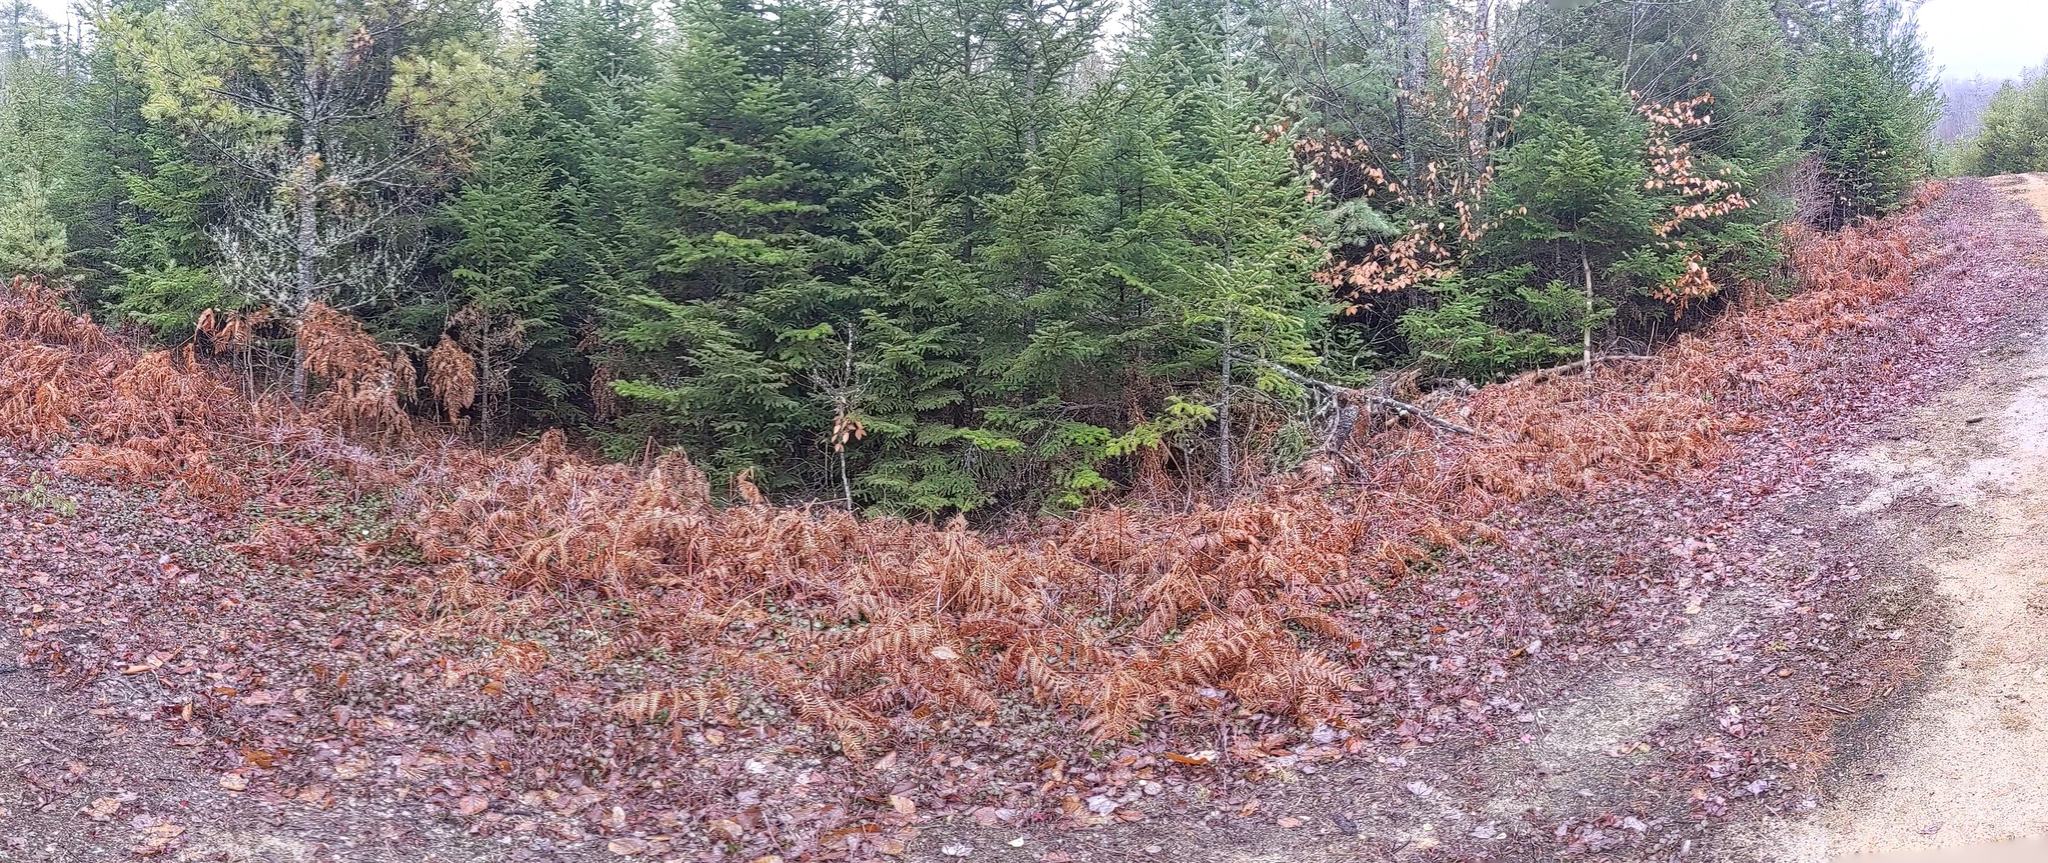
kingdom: Plantae
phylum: Tracheophyta
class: Polypodiopsida
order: Polypodiales
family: Dennstaedtiaceae
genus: Pteridium
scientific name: Pteridium aquilinum
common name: Bracken
